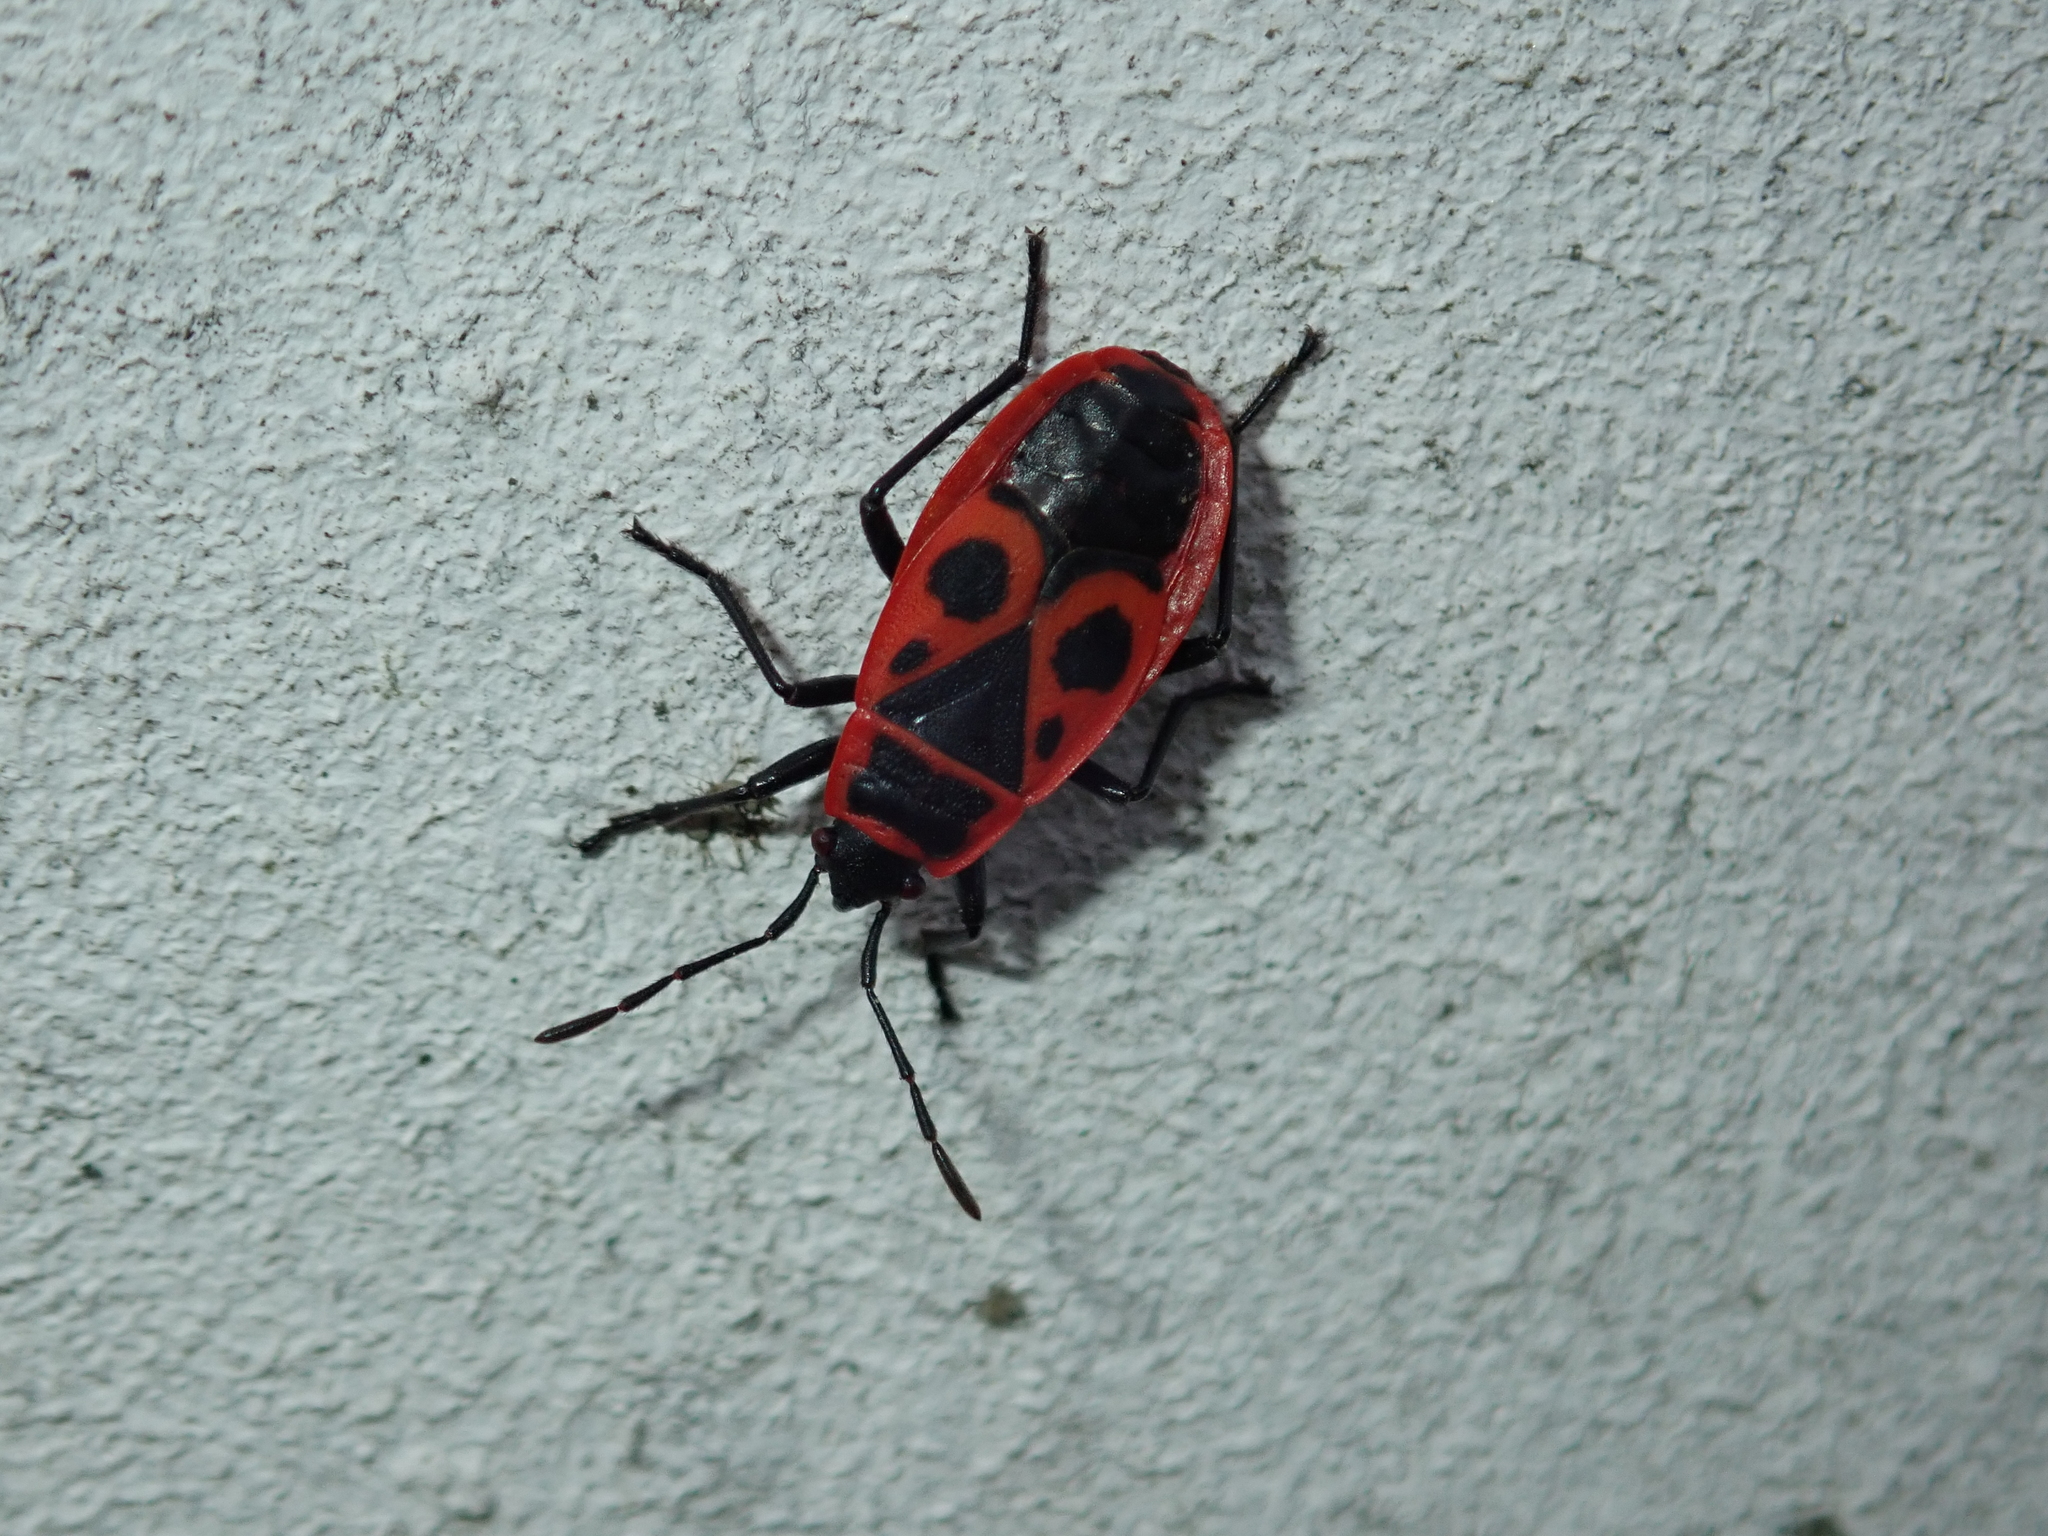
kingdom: Animalia
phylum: Arthropoda
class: Insecta
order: Hemiptera
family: Pyrrhocoridae
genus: Pyrrhocoris
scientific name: Pyrrhocoris apterus
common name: Firebug
